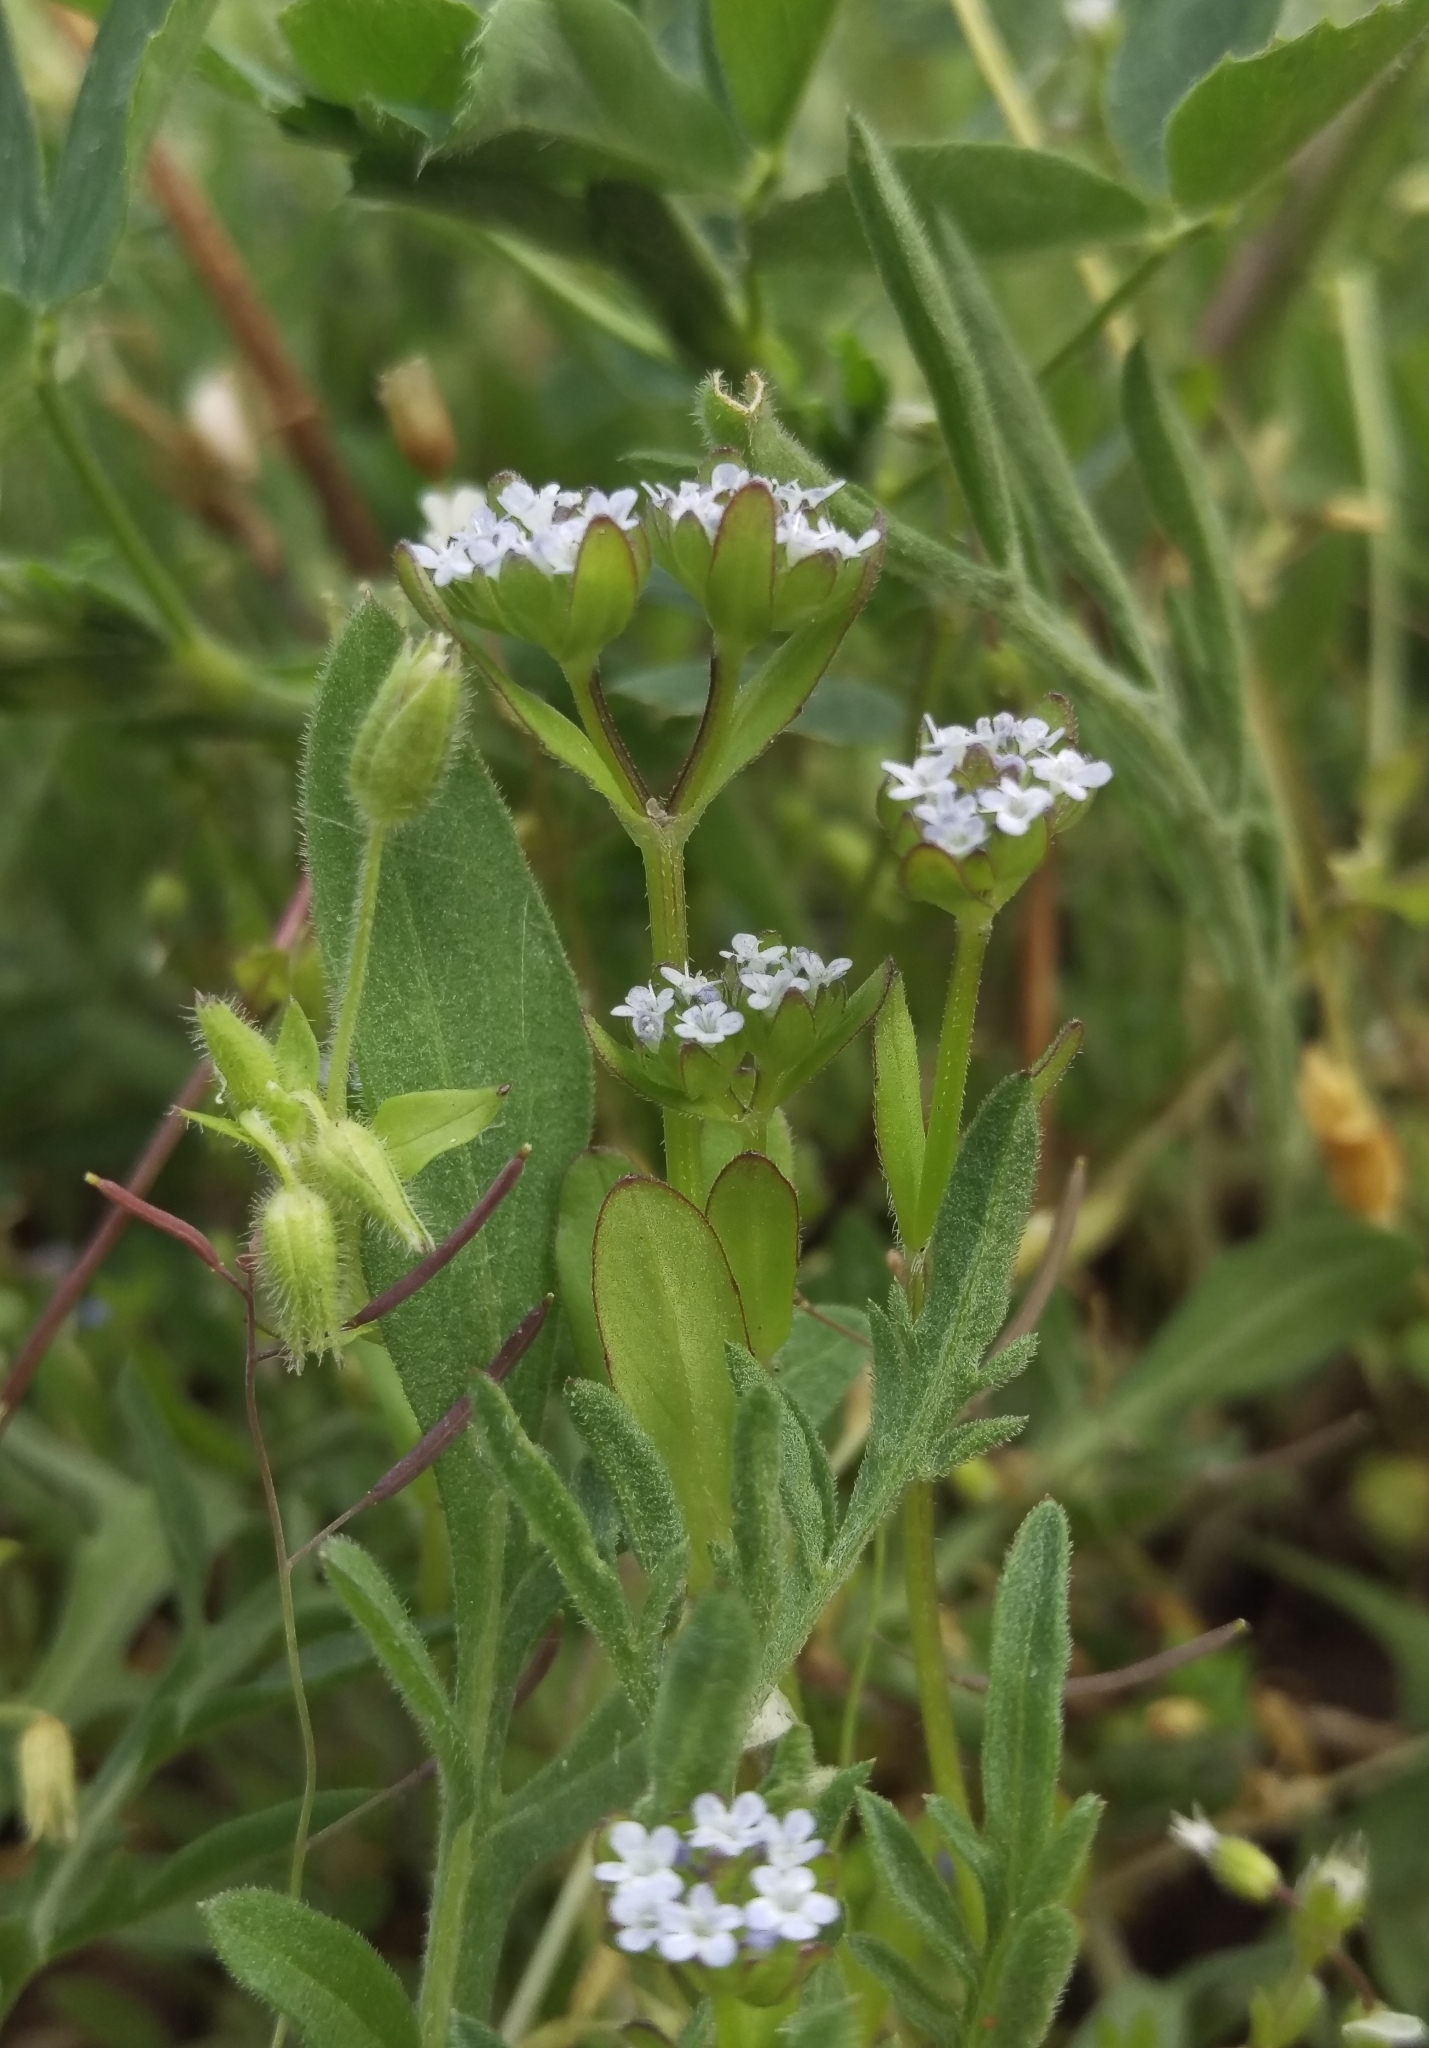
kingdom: Plantae
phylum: Tracheophyta
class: Magnoliopsida
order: Dipsacales
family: Caprifoliaceae
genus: Valerianella
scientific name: Valerianella locusta
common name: Common cornsalad
